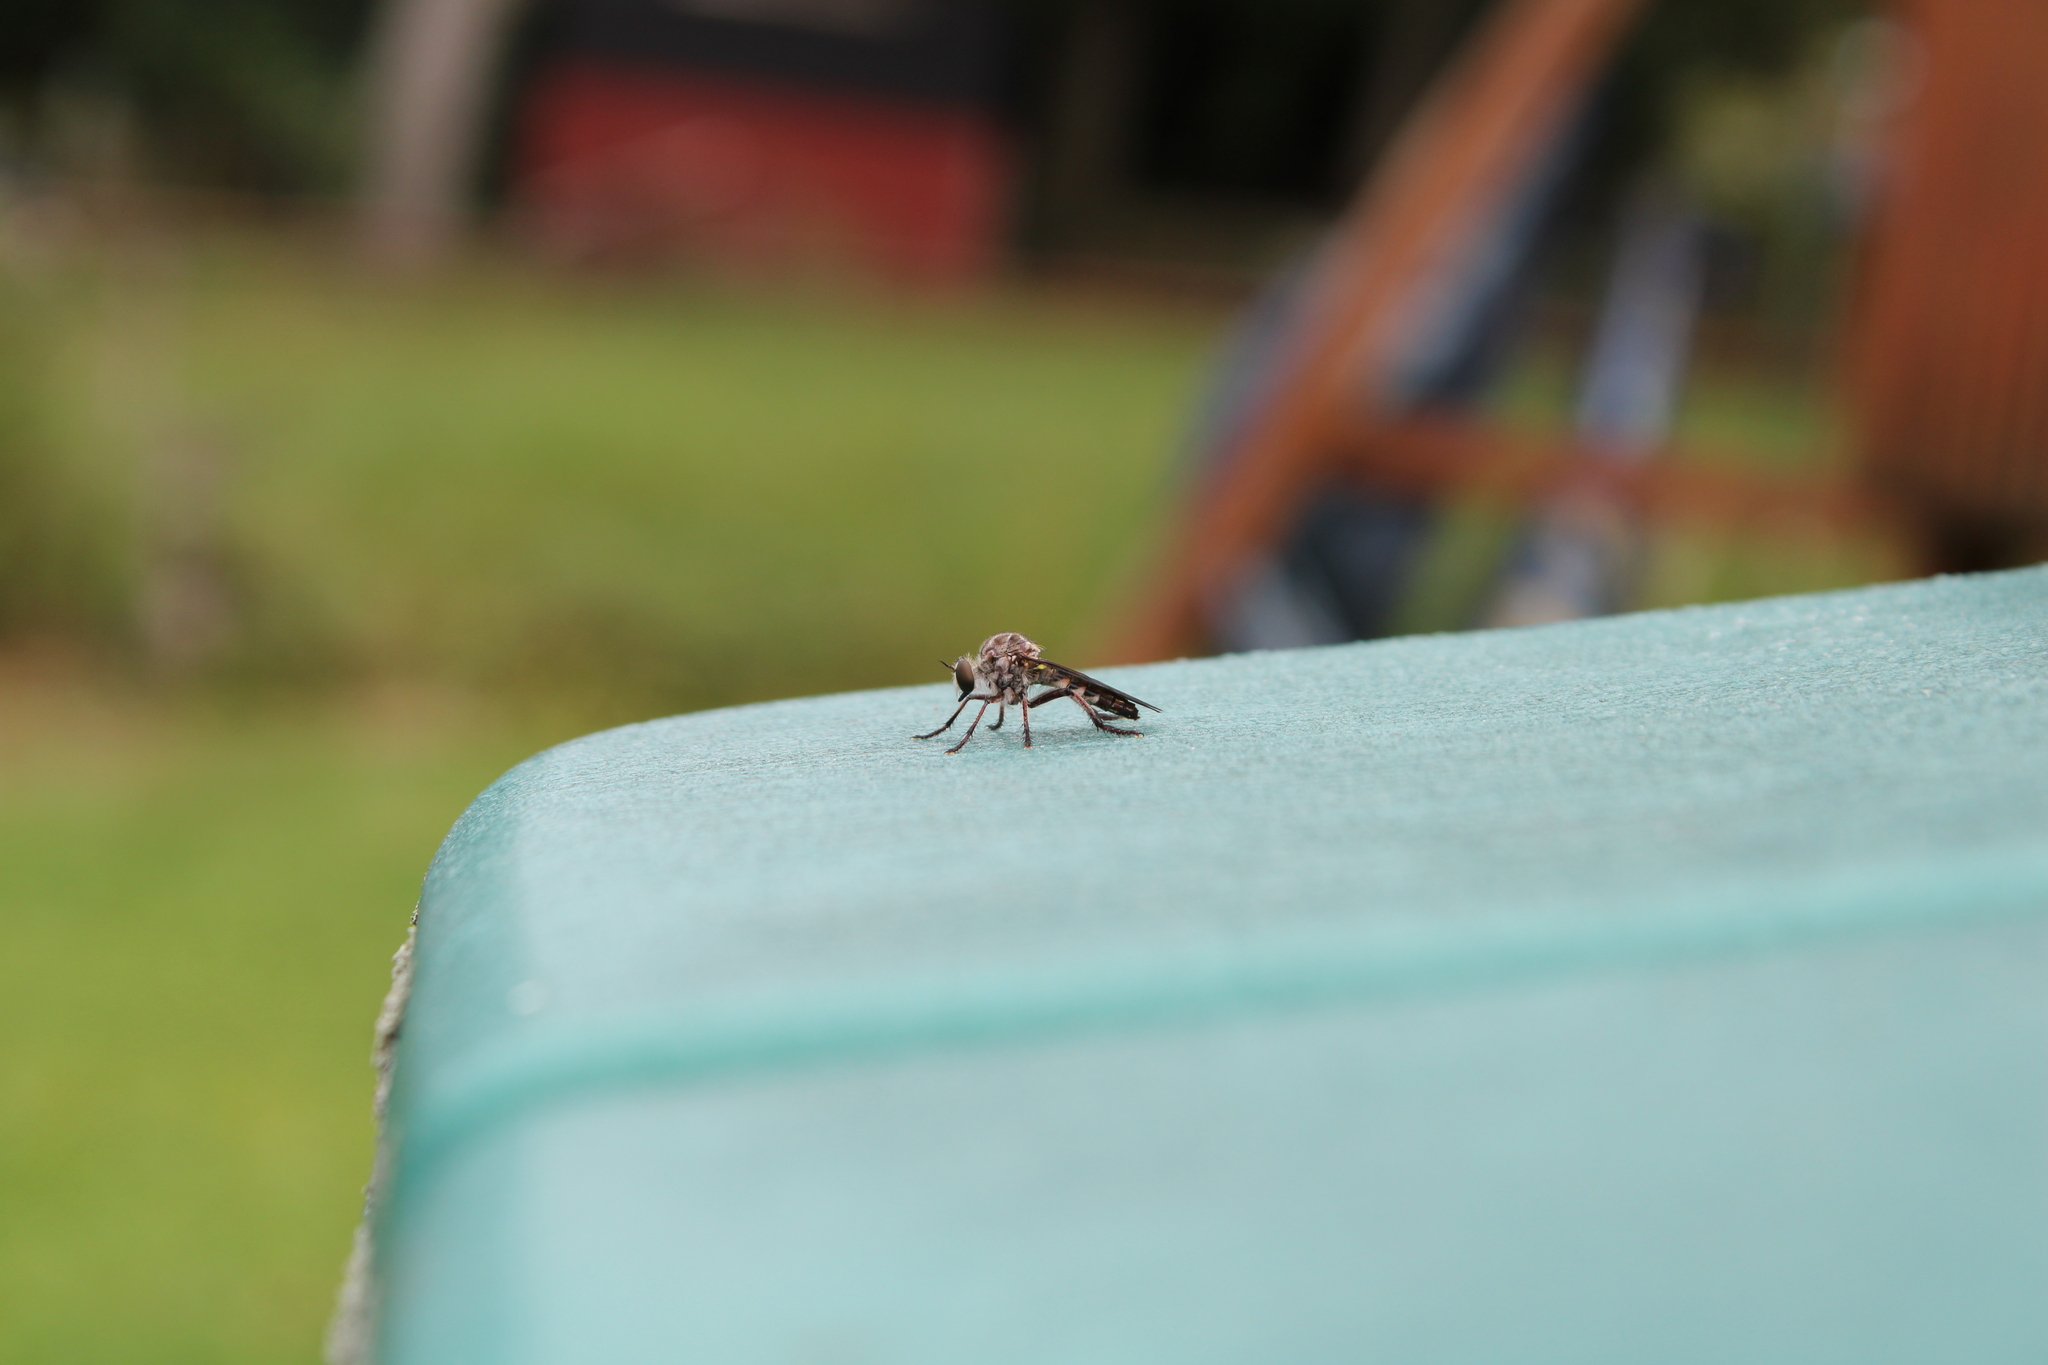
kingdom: Animalia
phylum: Arthropoda
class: Insecta
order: Diptera
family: Asilidae
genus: Heteropogon
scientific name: Heteropogon macerinus
